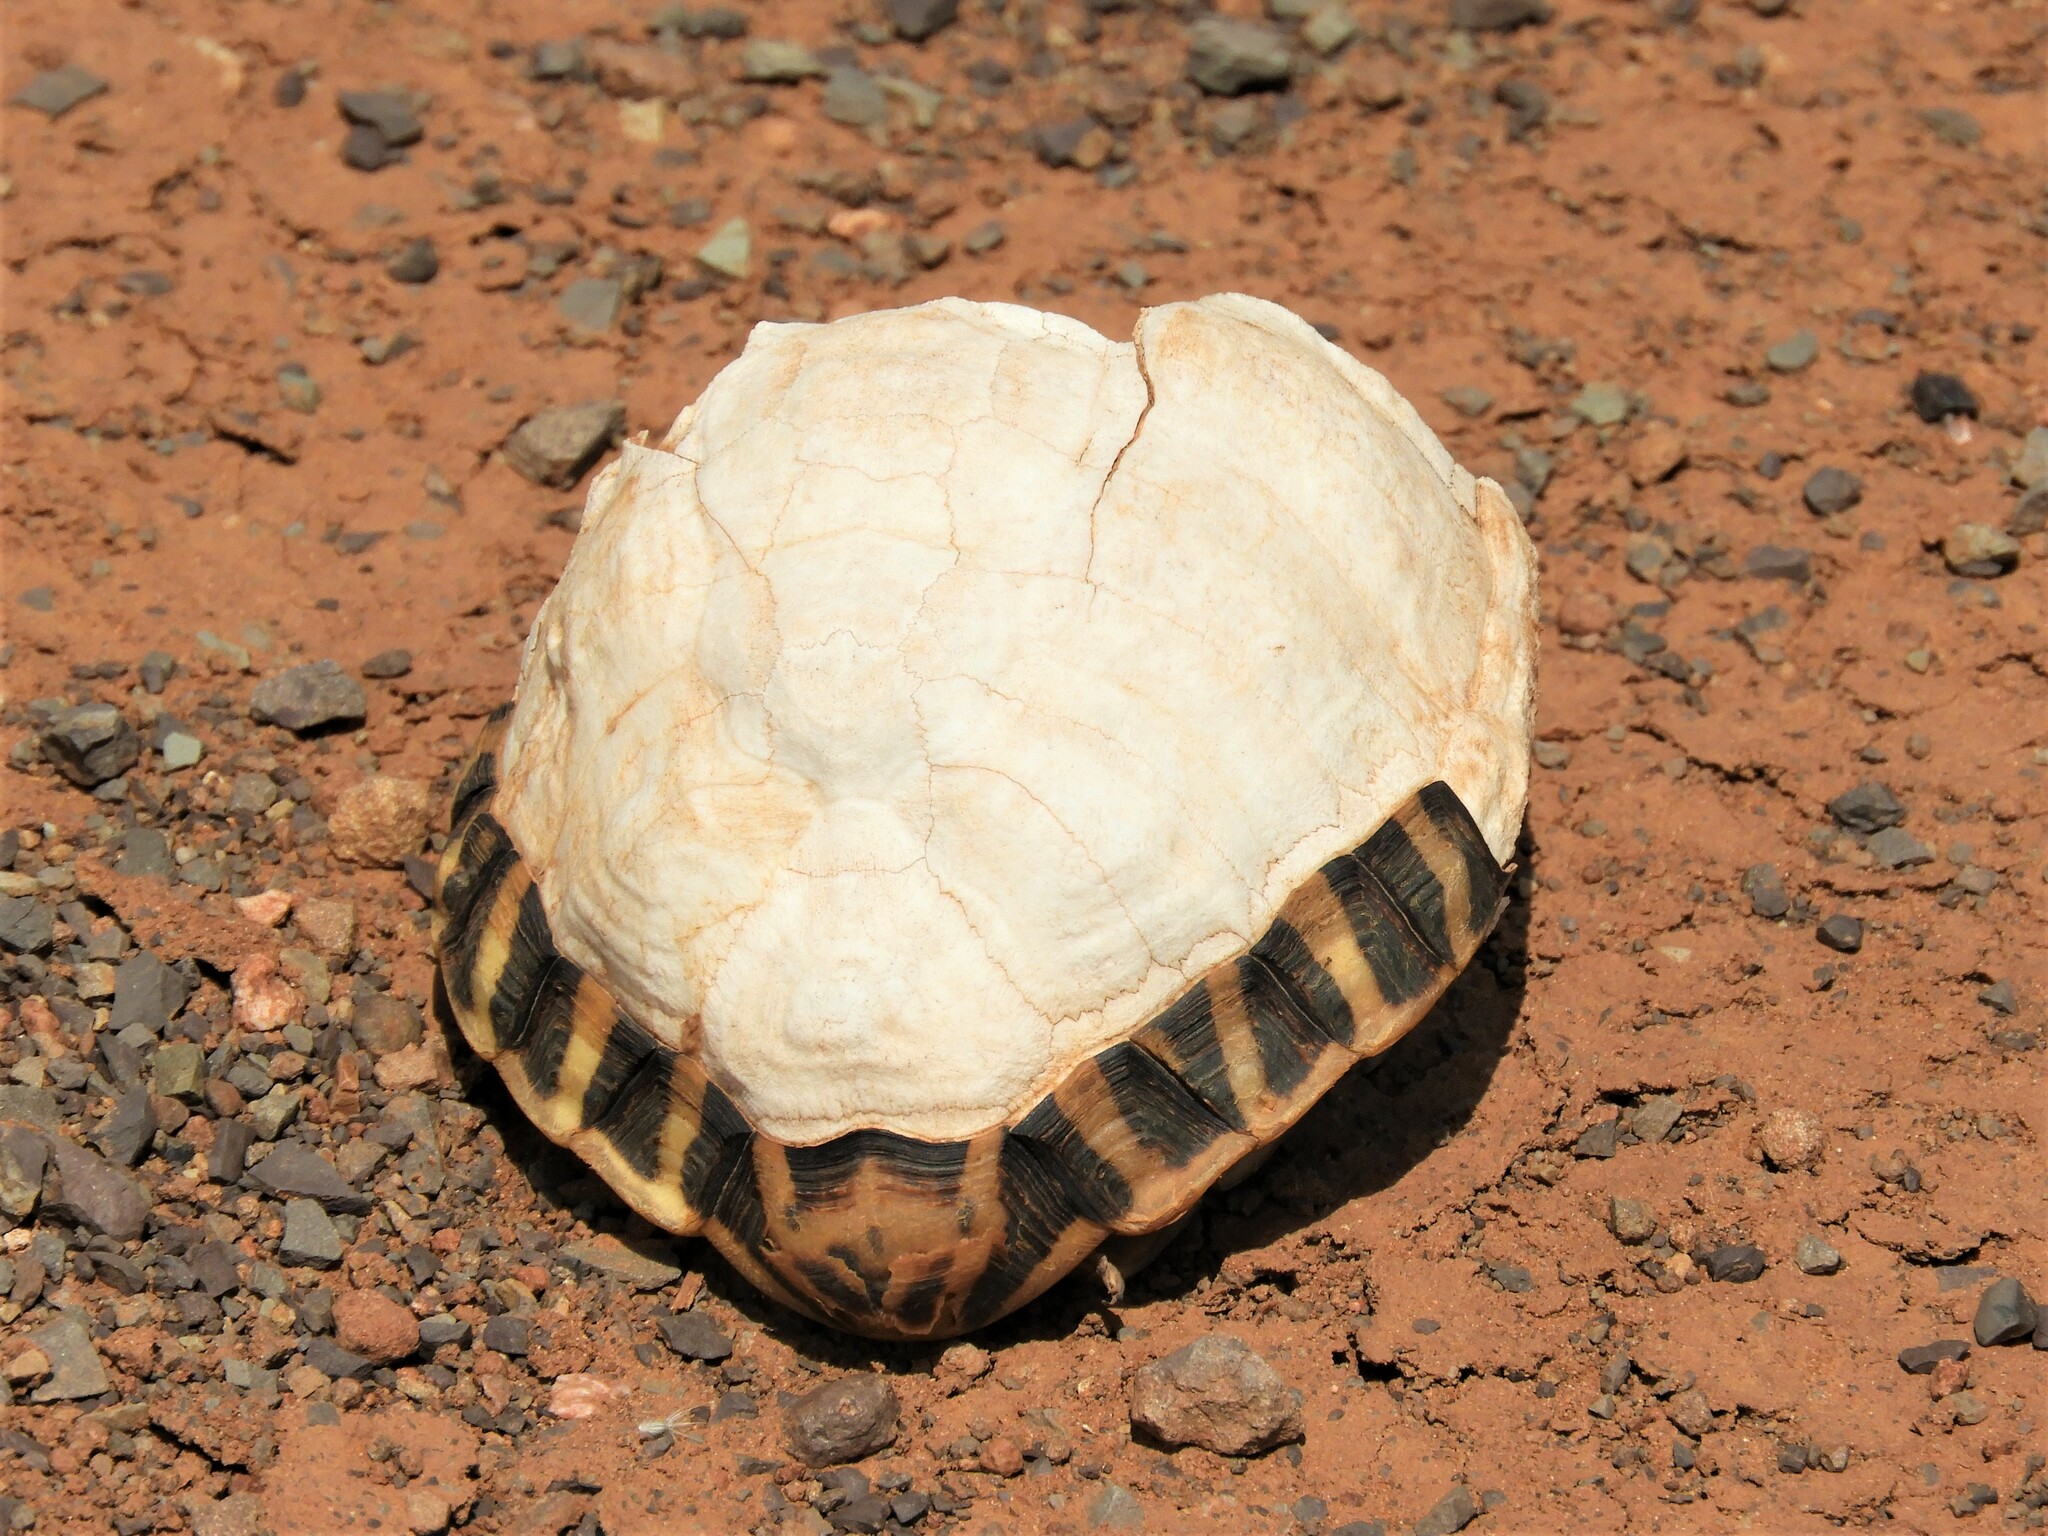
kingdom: Animalia
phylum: Chordata
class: Testudines
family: Testudinidae
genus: Psammobates
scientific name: Psammobates tentorius
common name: Tent tortoise
